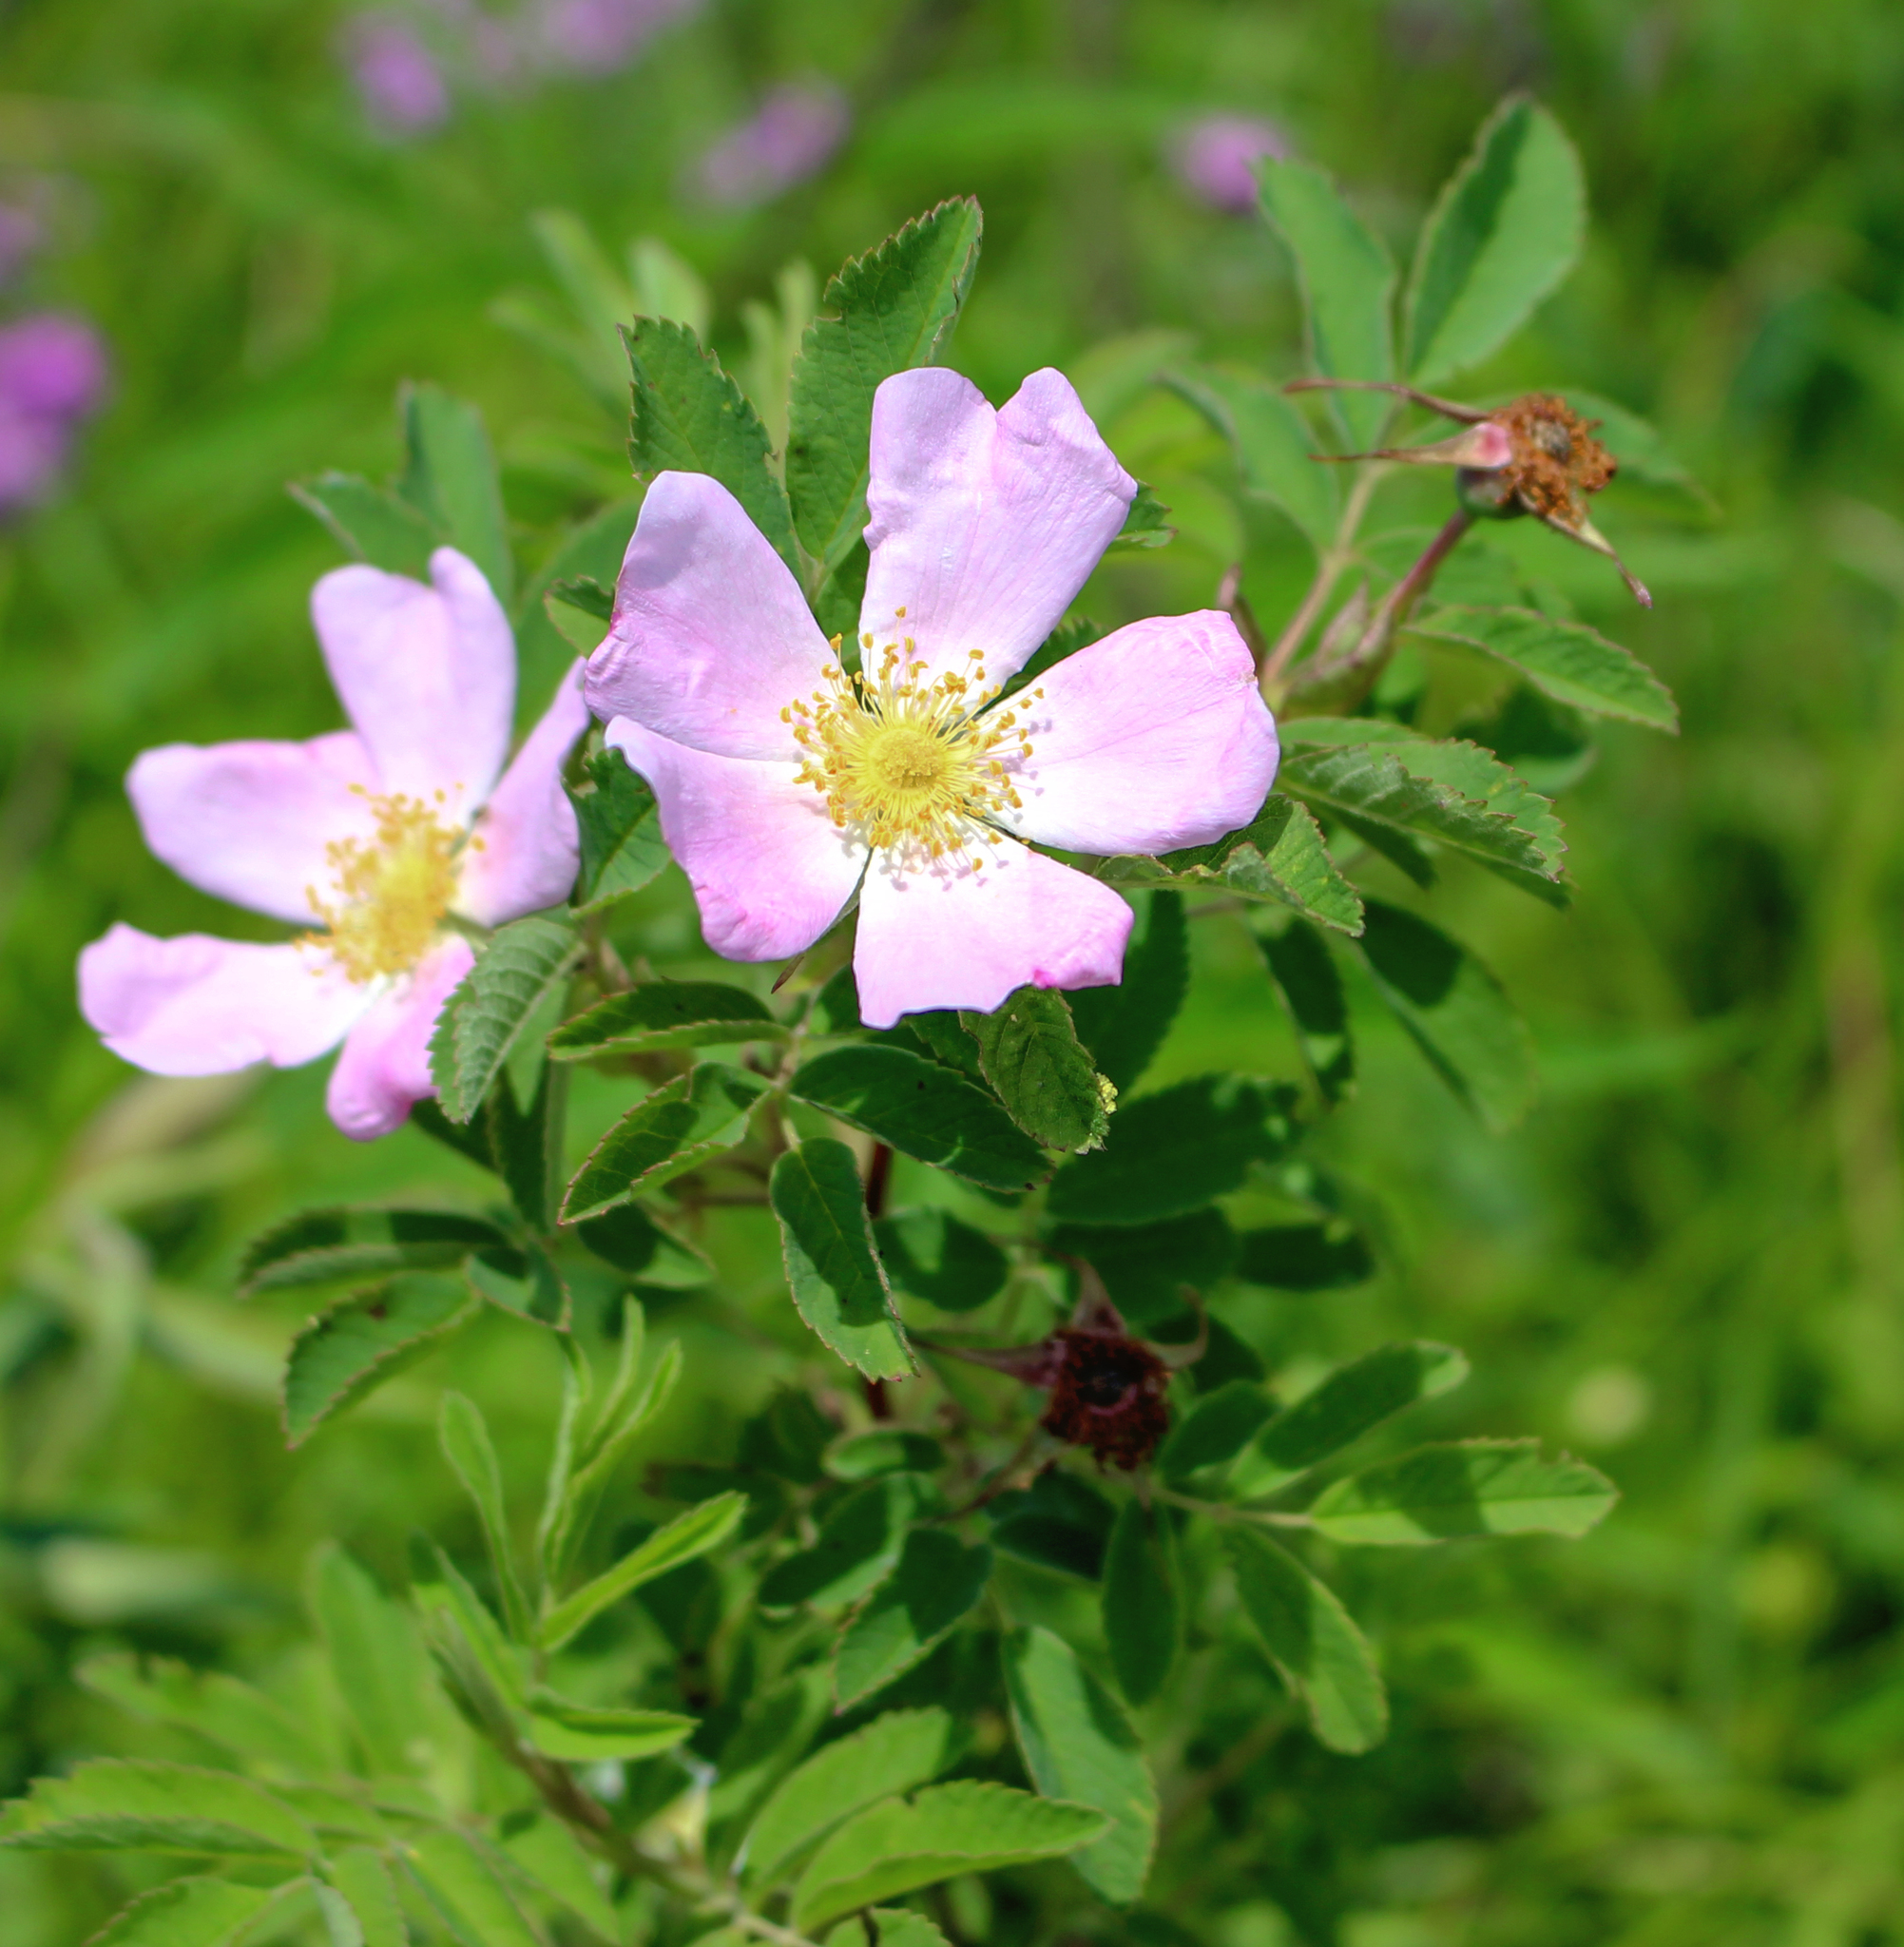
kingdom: Plantae
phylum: Tracheophyta
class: Magnoliopsida
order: Rosales
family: Rosaceae
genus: Rosa
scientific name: Rosa blanda
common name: Smooth rose
